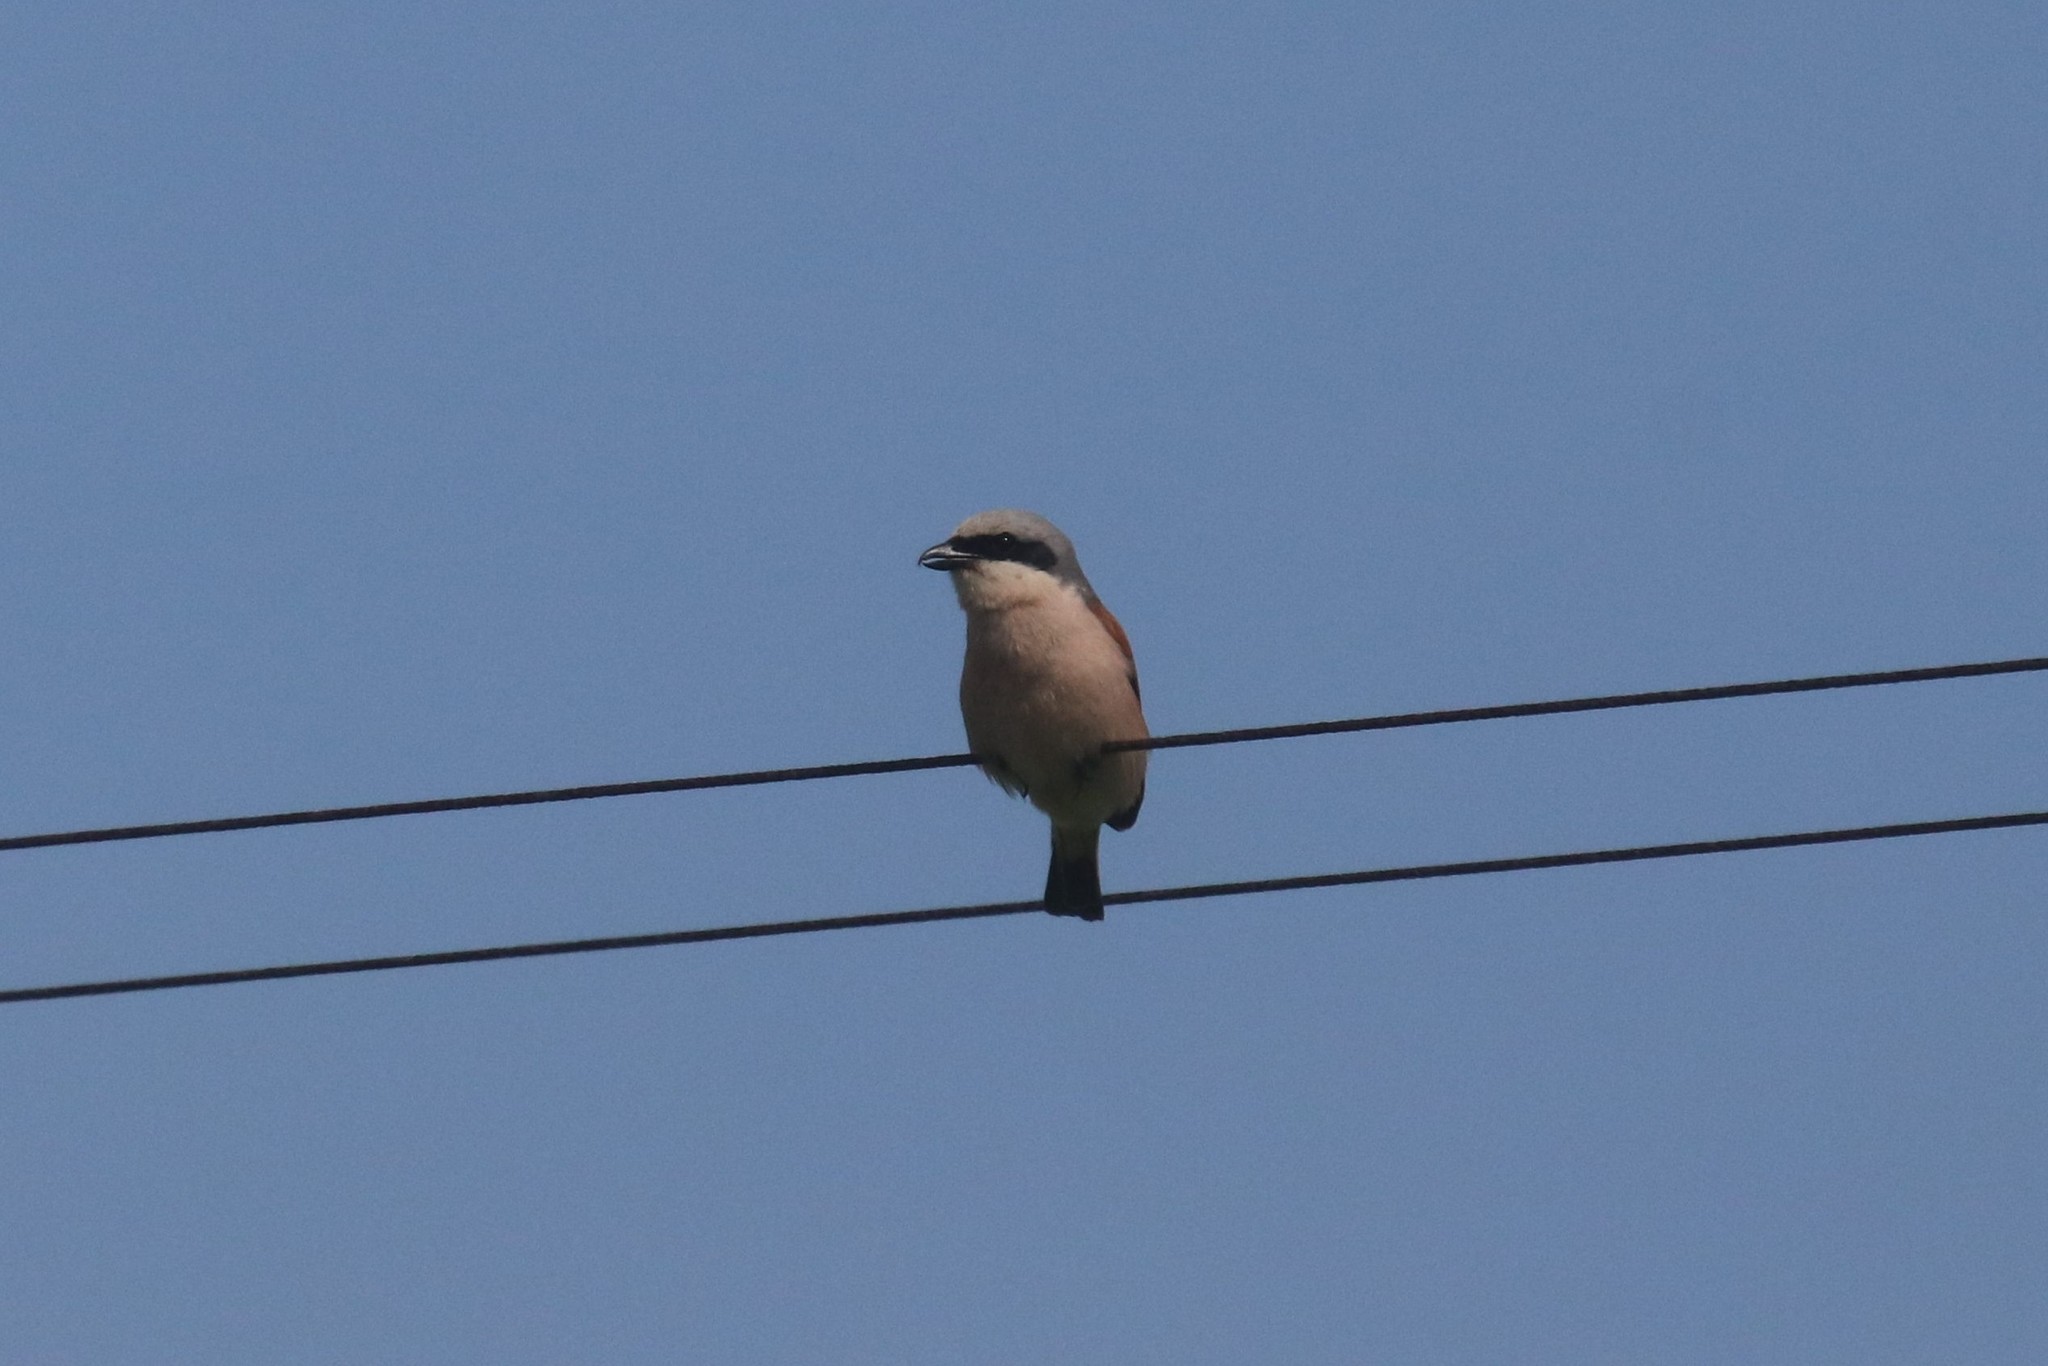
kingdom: Animalia
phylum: Chordata
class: Aves
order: Passeriformes
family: Laniidae
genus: Lanius
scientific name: Lanius collurio
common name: Red-backed shrike
